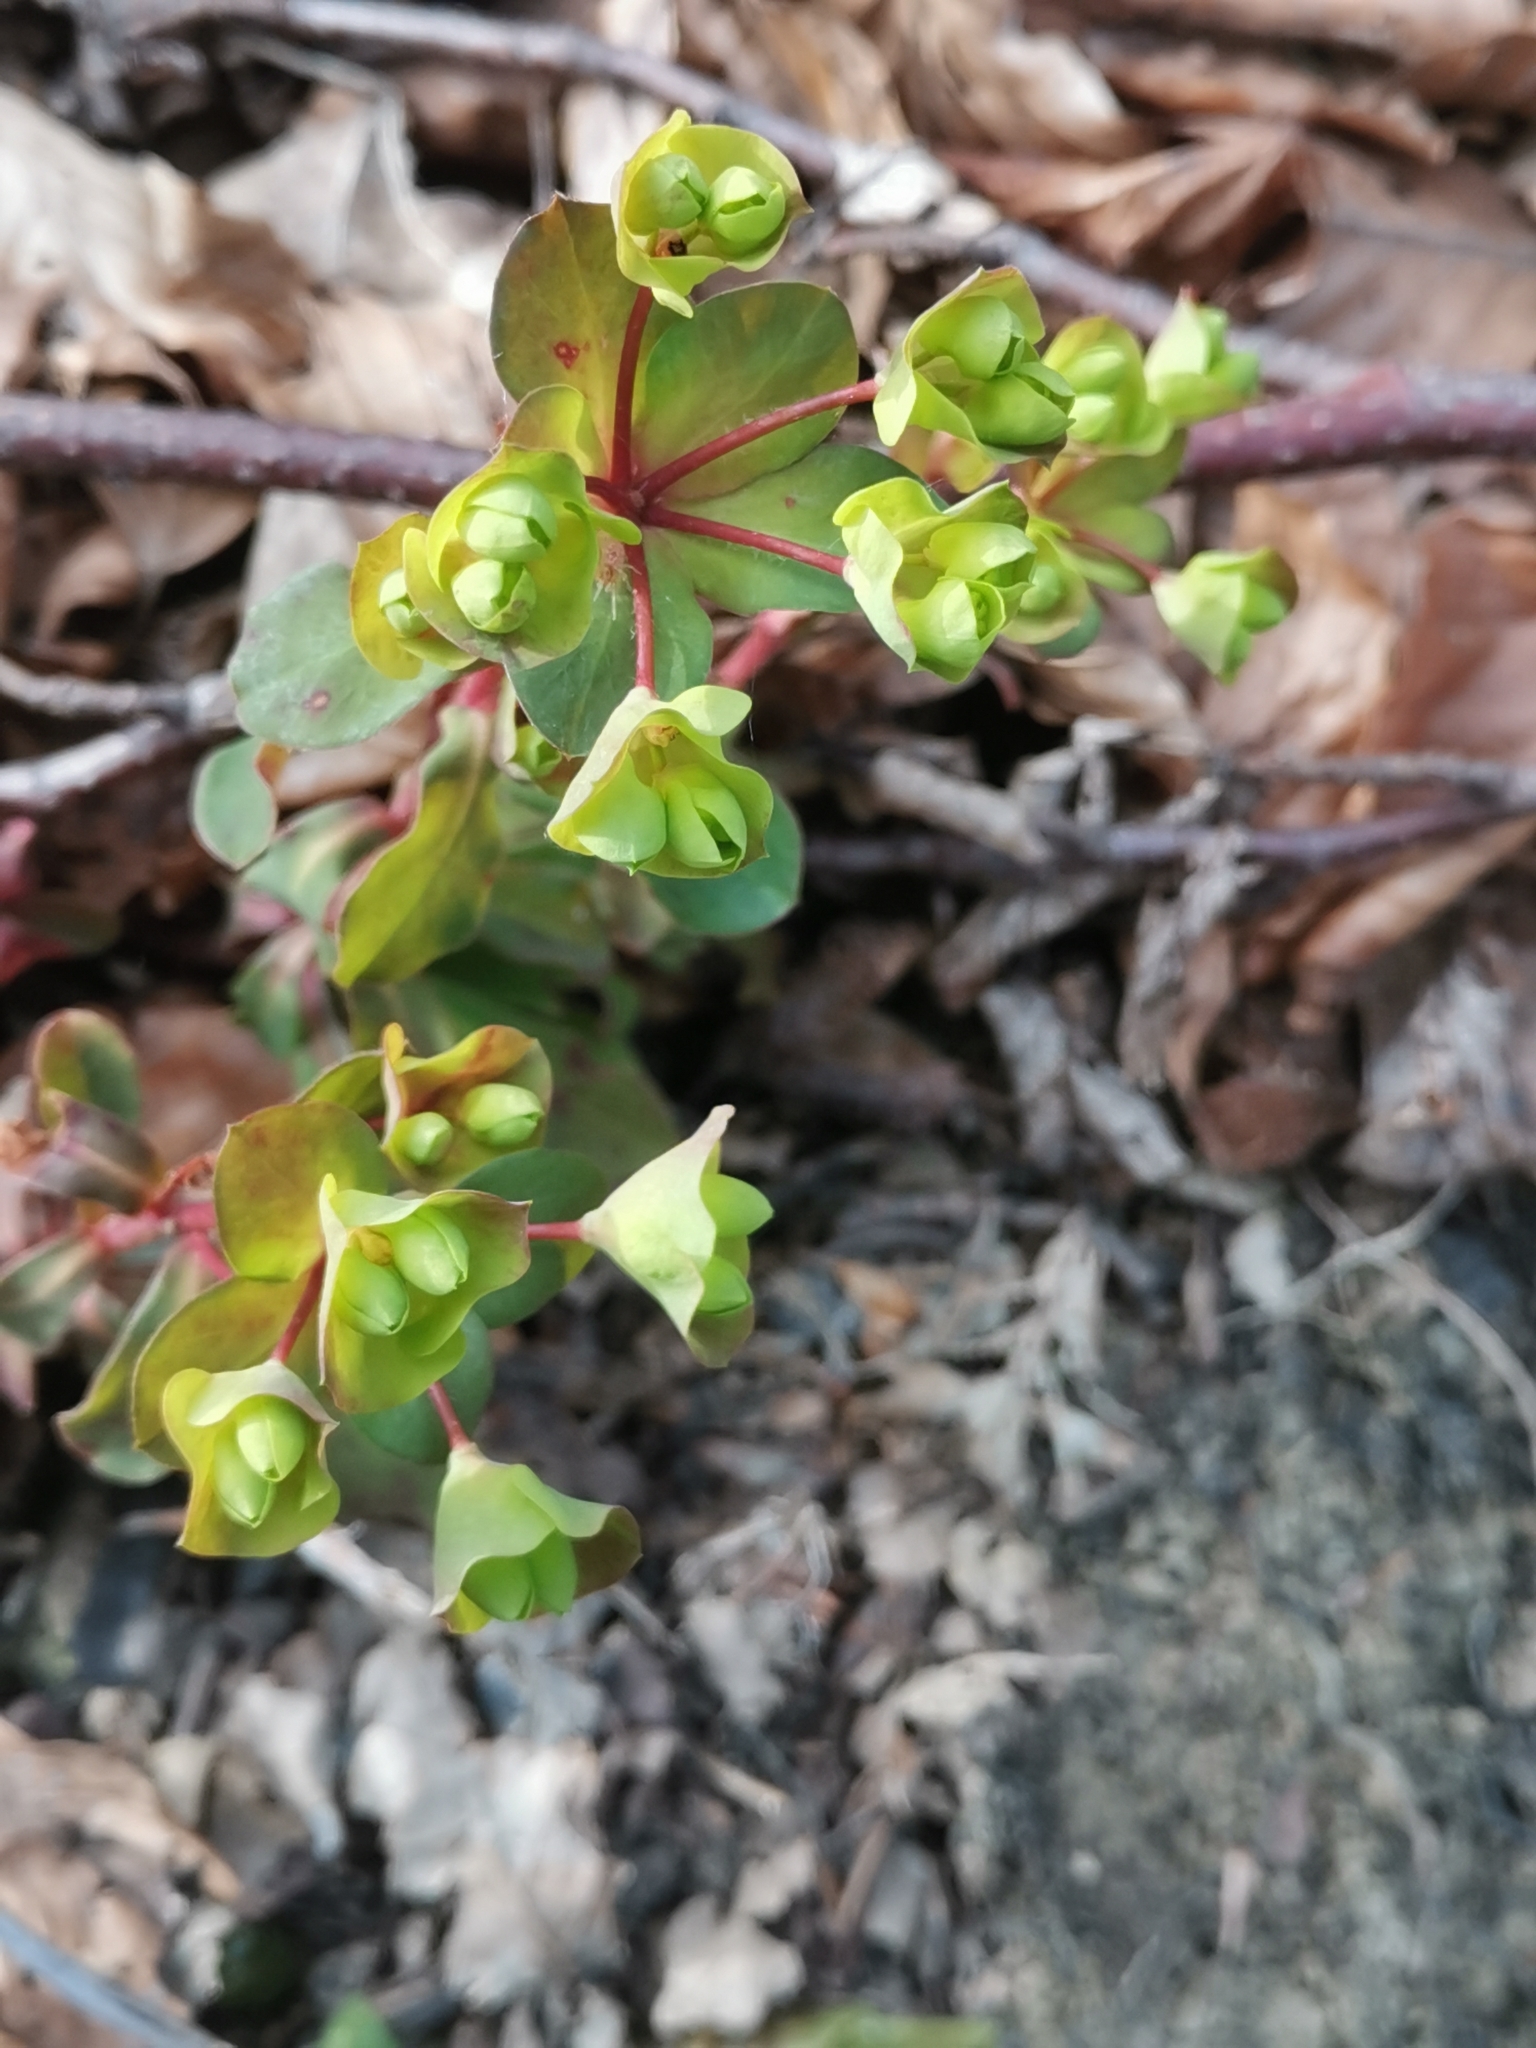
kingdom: Plantae
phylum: Tracheophyta
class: Magnoliopsida
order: Malpighiales
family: Euphorbiaceae
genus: Euphorbia
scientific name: Euphorbia amygdaloides
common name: Wood spurge
